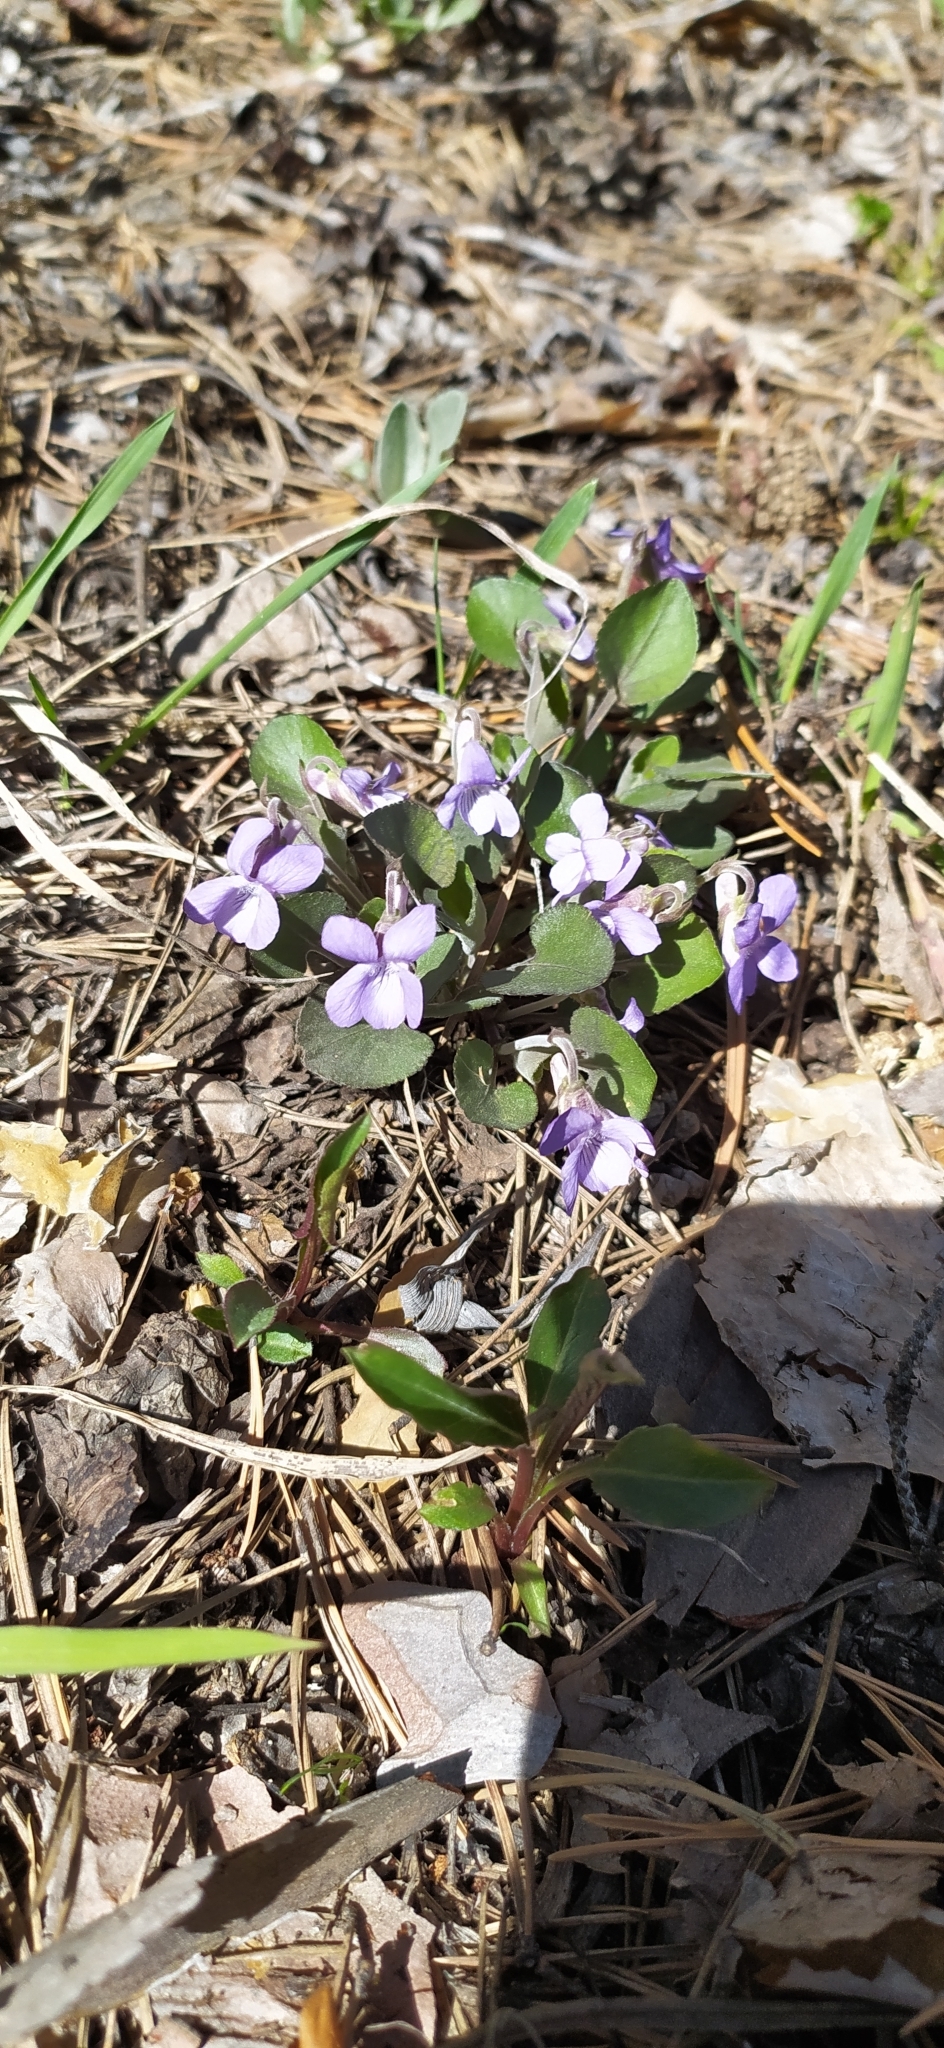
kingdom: Plantae
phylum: Tracheophyta
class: Magnoliopsida
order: Malpighiales
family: Violaceae
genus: Viola
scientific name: Viola rupestris
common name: Teesdale violet
